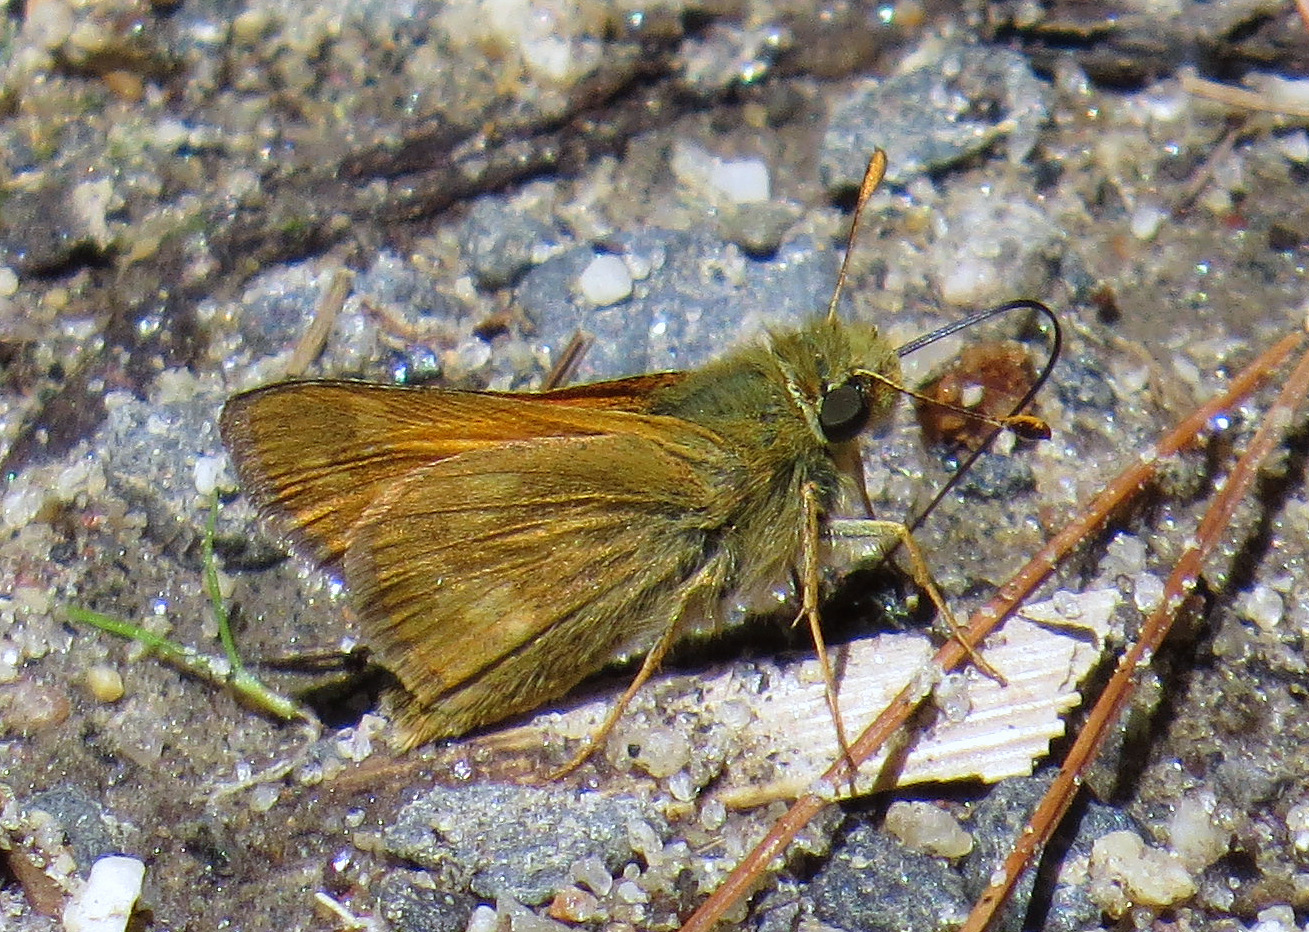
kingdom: Animalia
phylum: Arthropoda
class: Insecta
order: Lepidoptera
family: Hesperiidae
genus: Hesperia
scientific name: Hesperia sassacus
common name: Indian skipper
